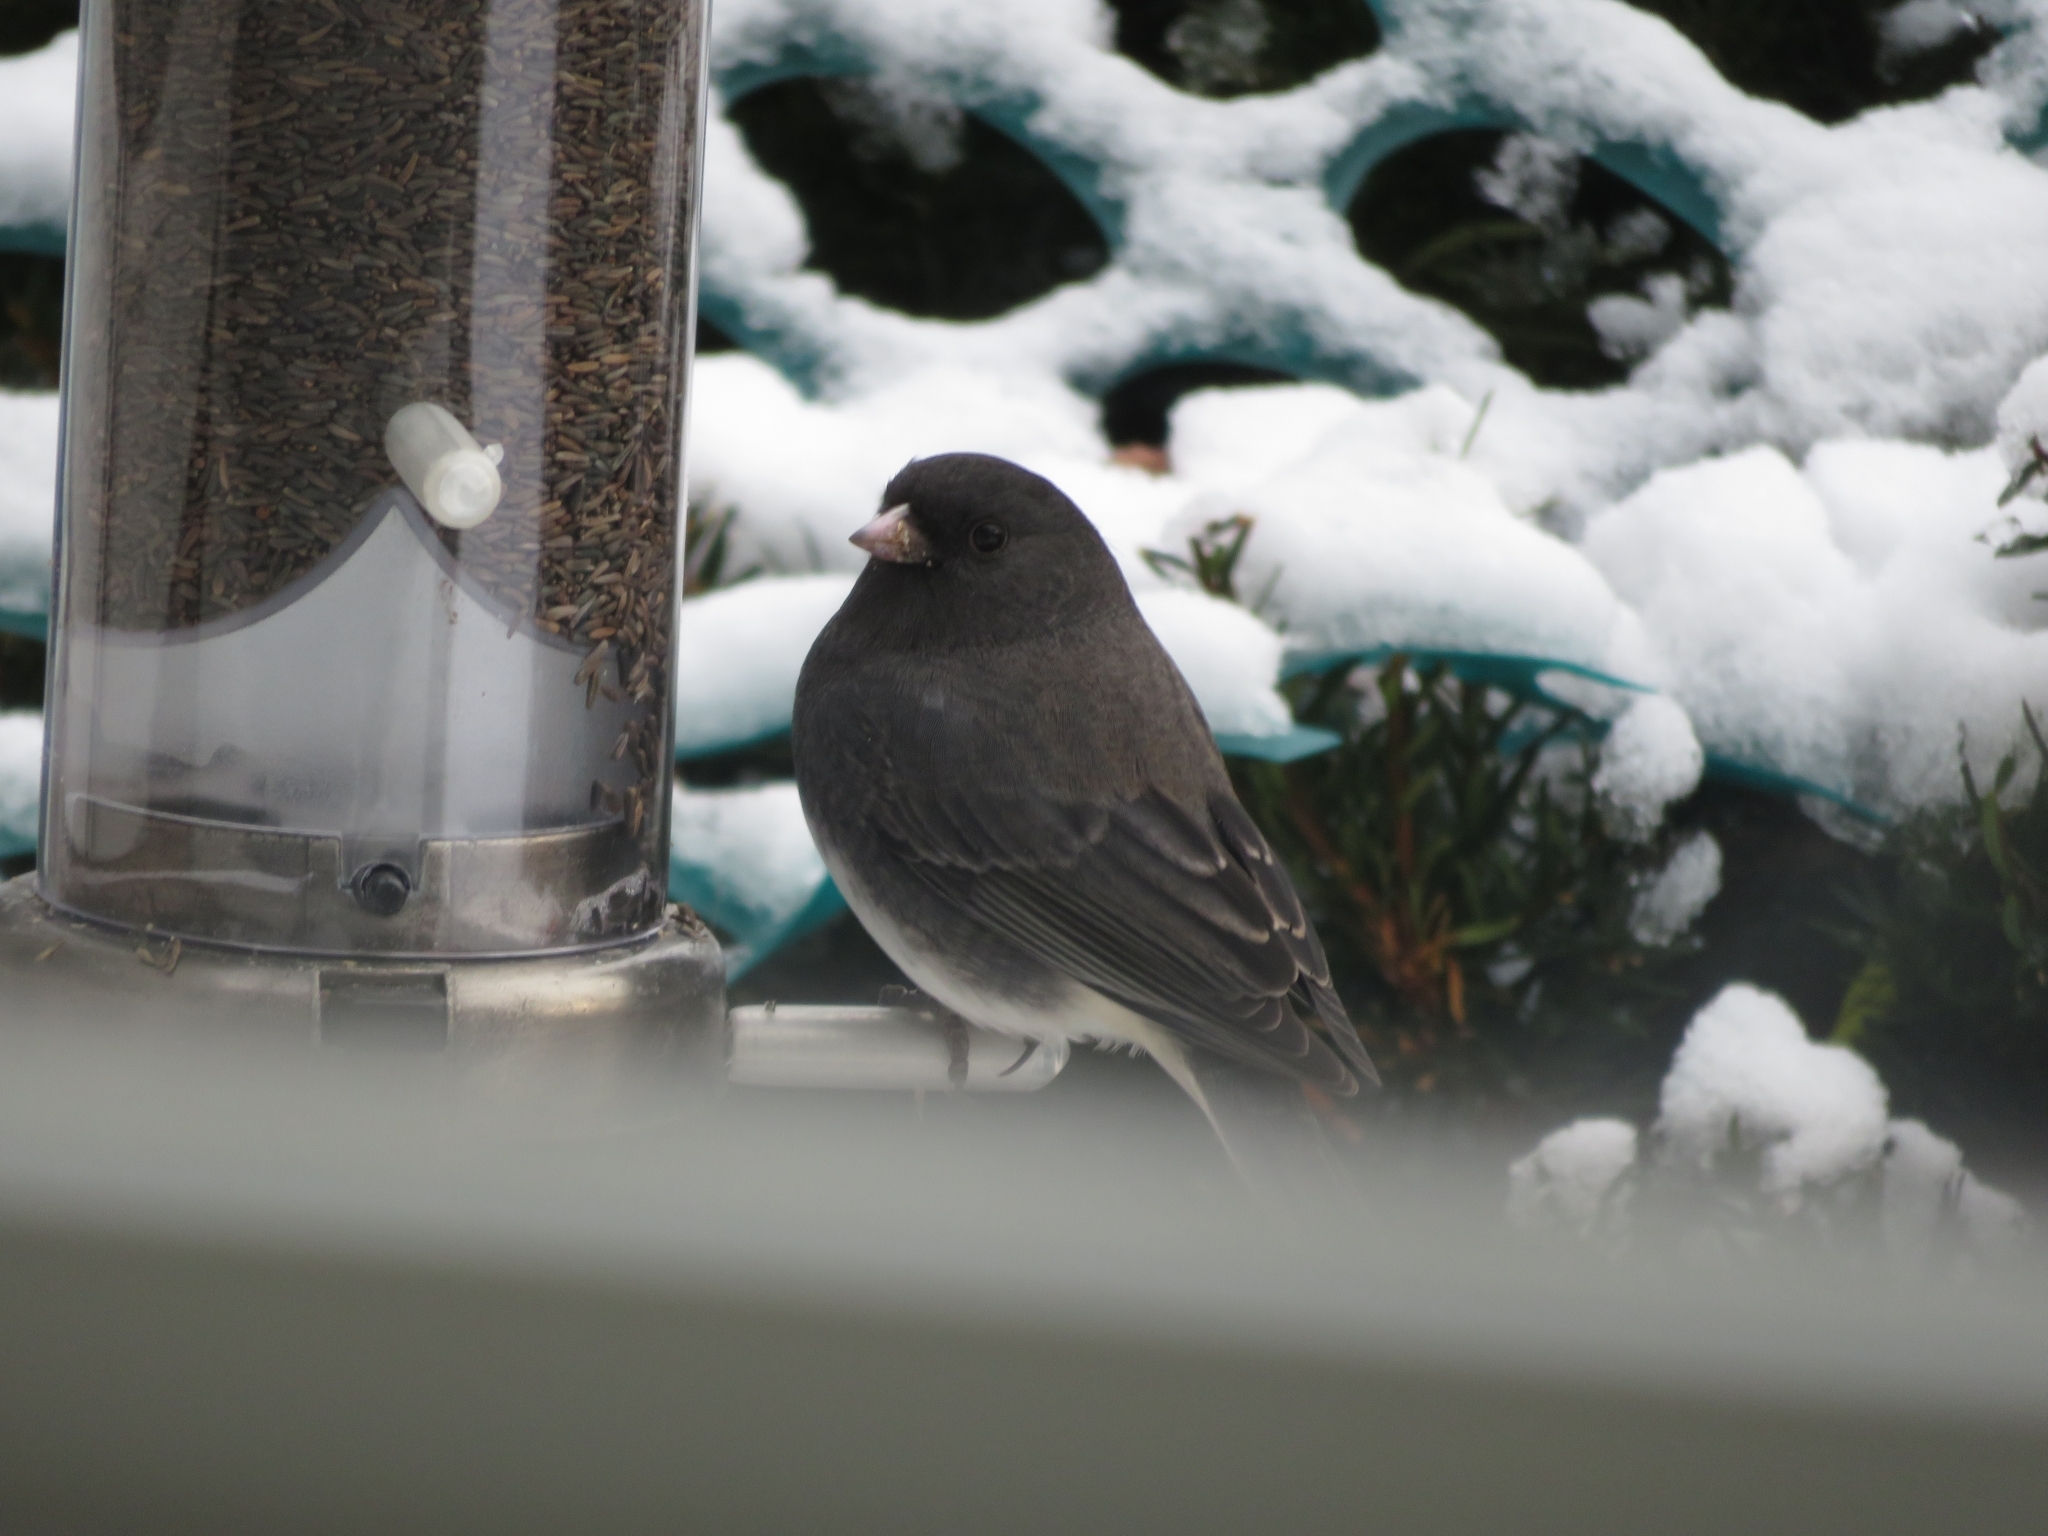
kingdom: Animalia
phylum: Chordata
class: Aves
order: Passeriformes
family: Passerellidae
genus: Junco
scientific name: Junco hyemalis
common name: Dark-eyed junco
